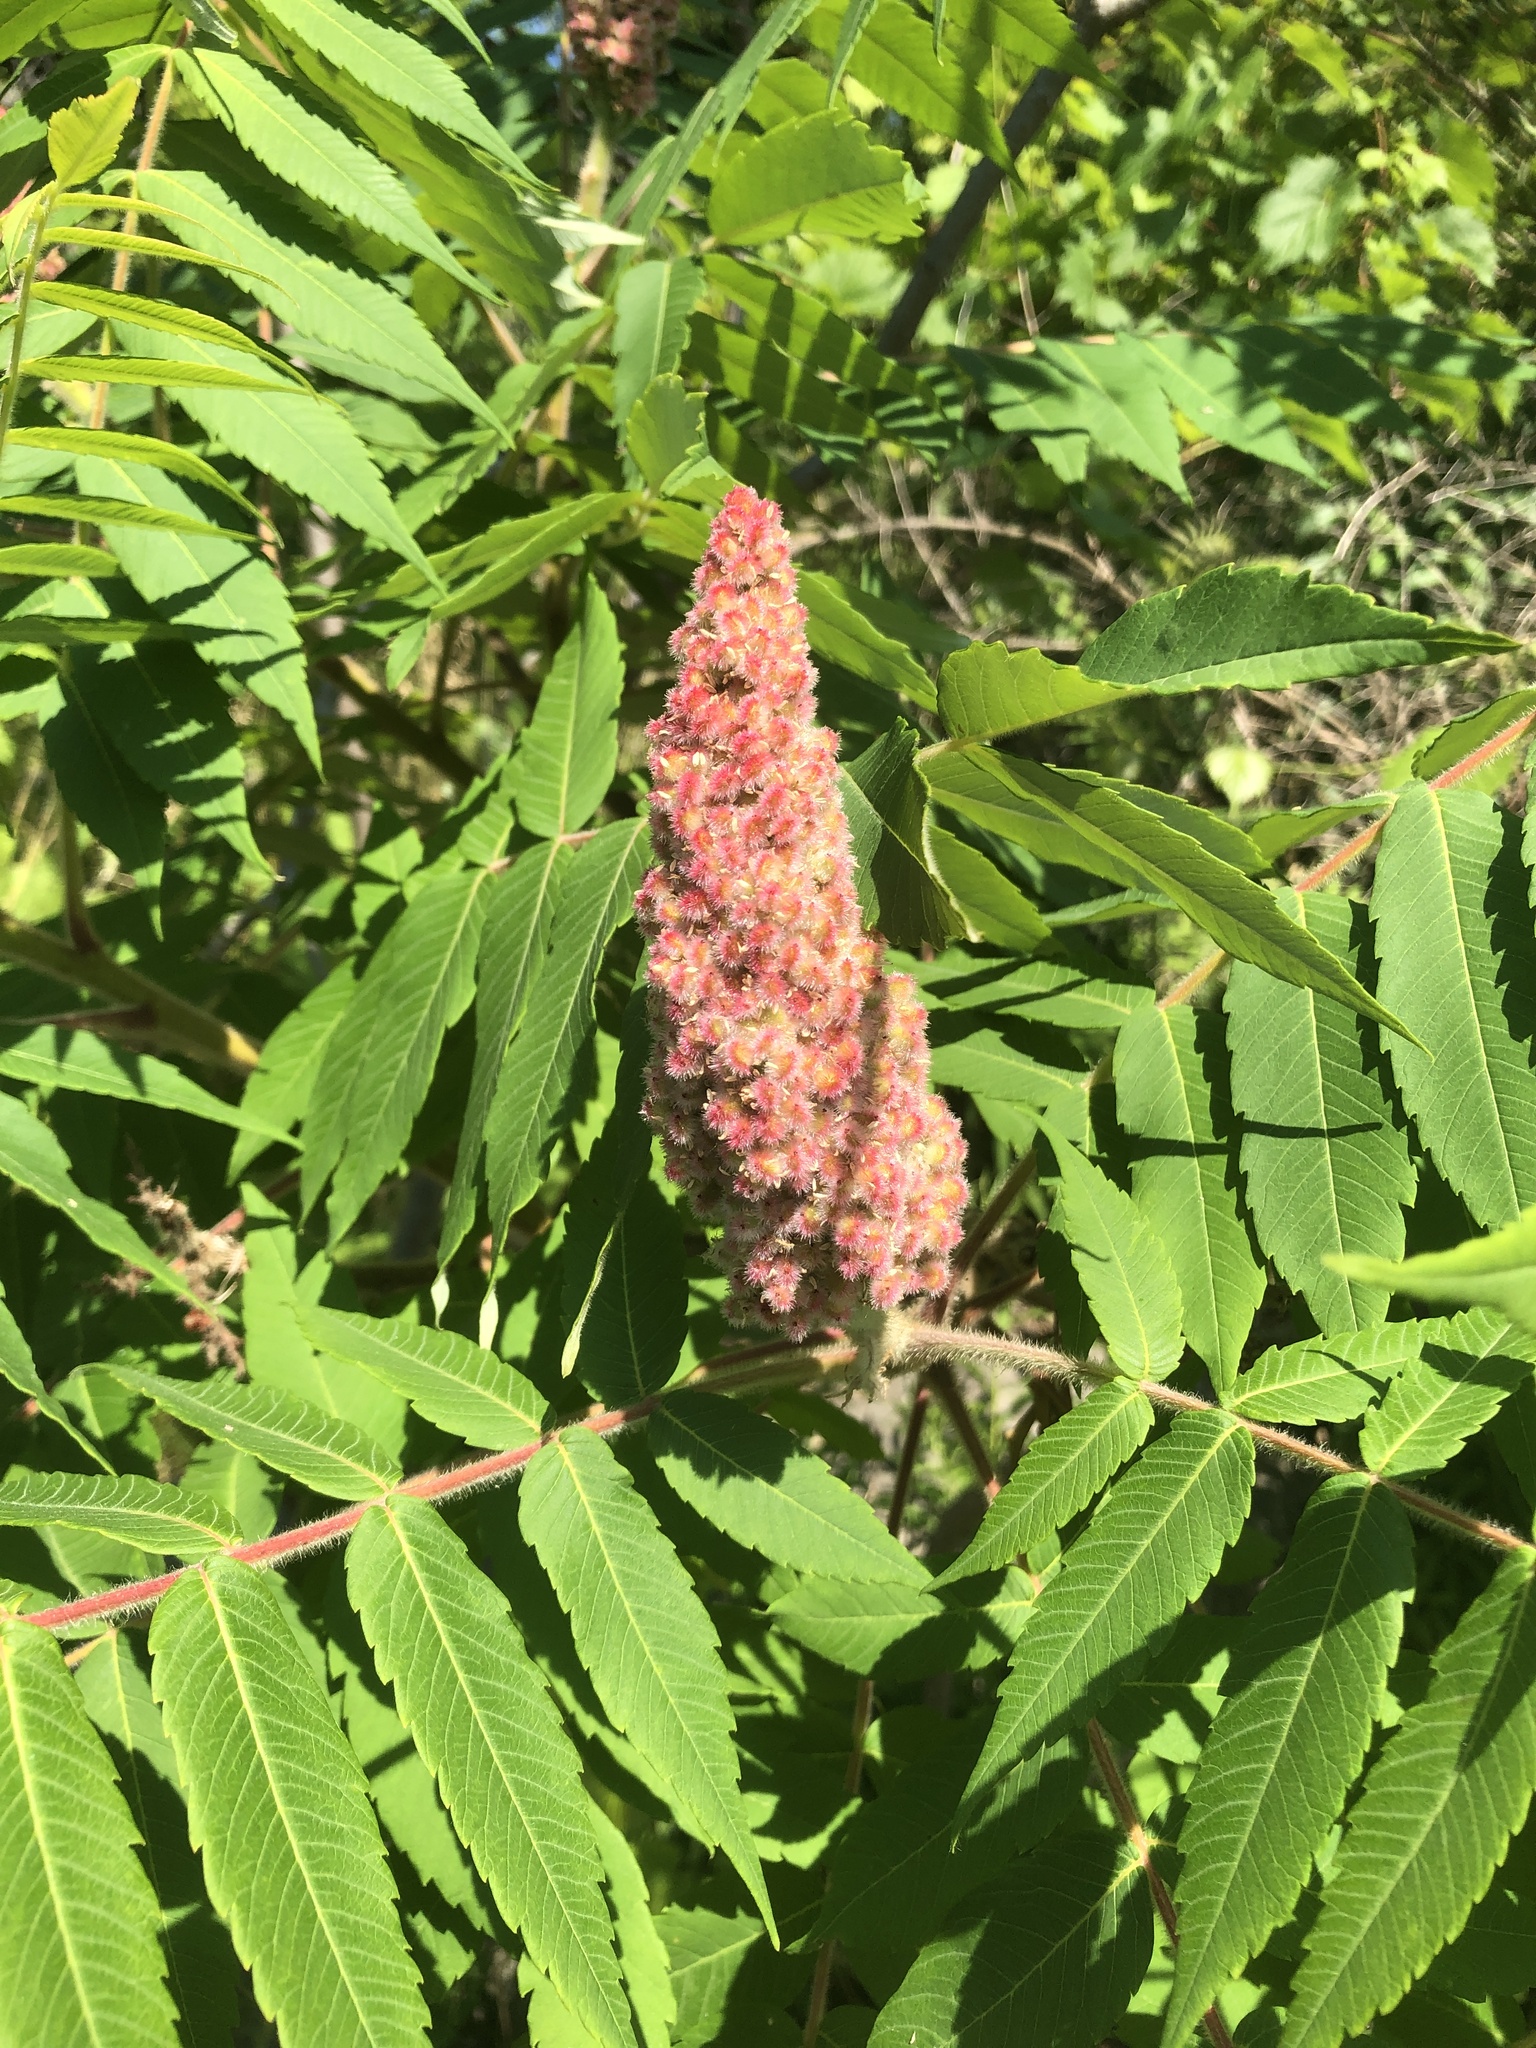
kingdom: Plantae
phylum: Tracheophyta
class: Magnoliopsida
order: Sapindales
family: Anacardiaceae
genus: Rhus
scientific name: Rhus typhina
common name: Staghorn sumac
